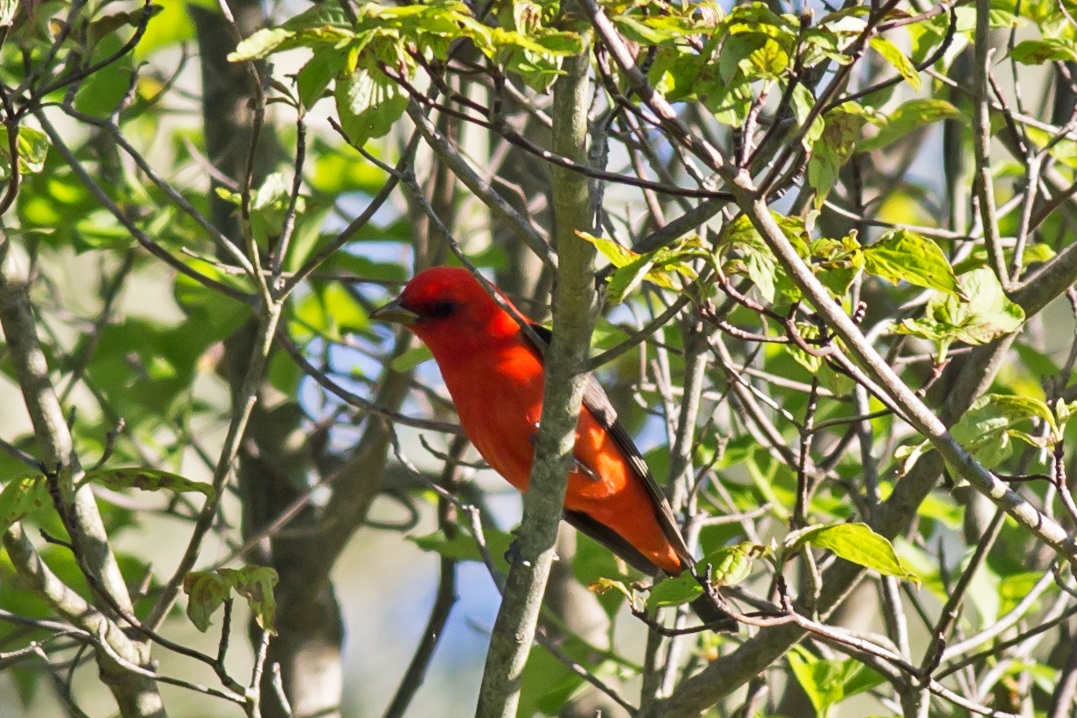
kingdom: Animalia
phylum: Chordata
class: Aves
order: Passeriformes
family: Cardinalidae
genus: Piranga
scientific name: Piranga olivacea
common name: Scarlet tanager
